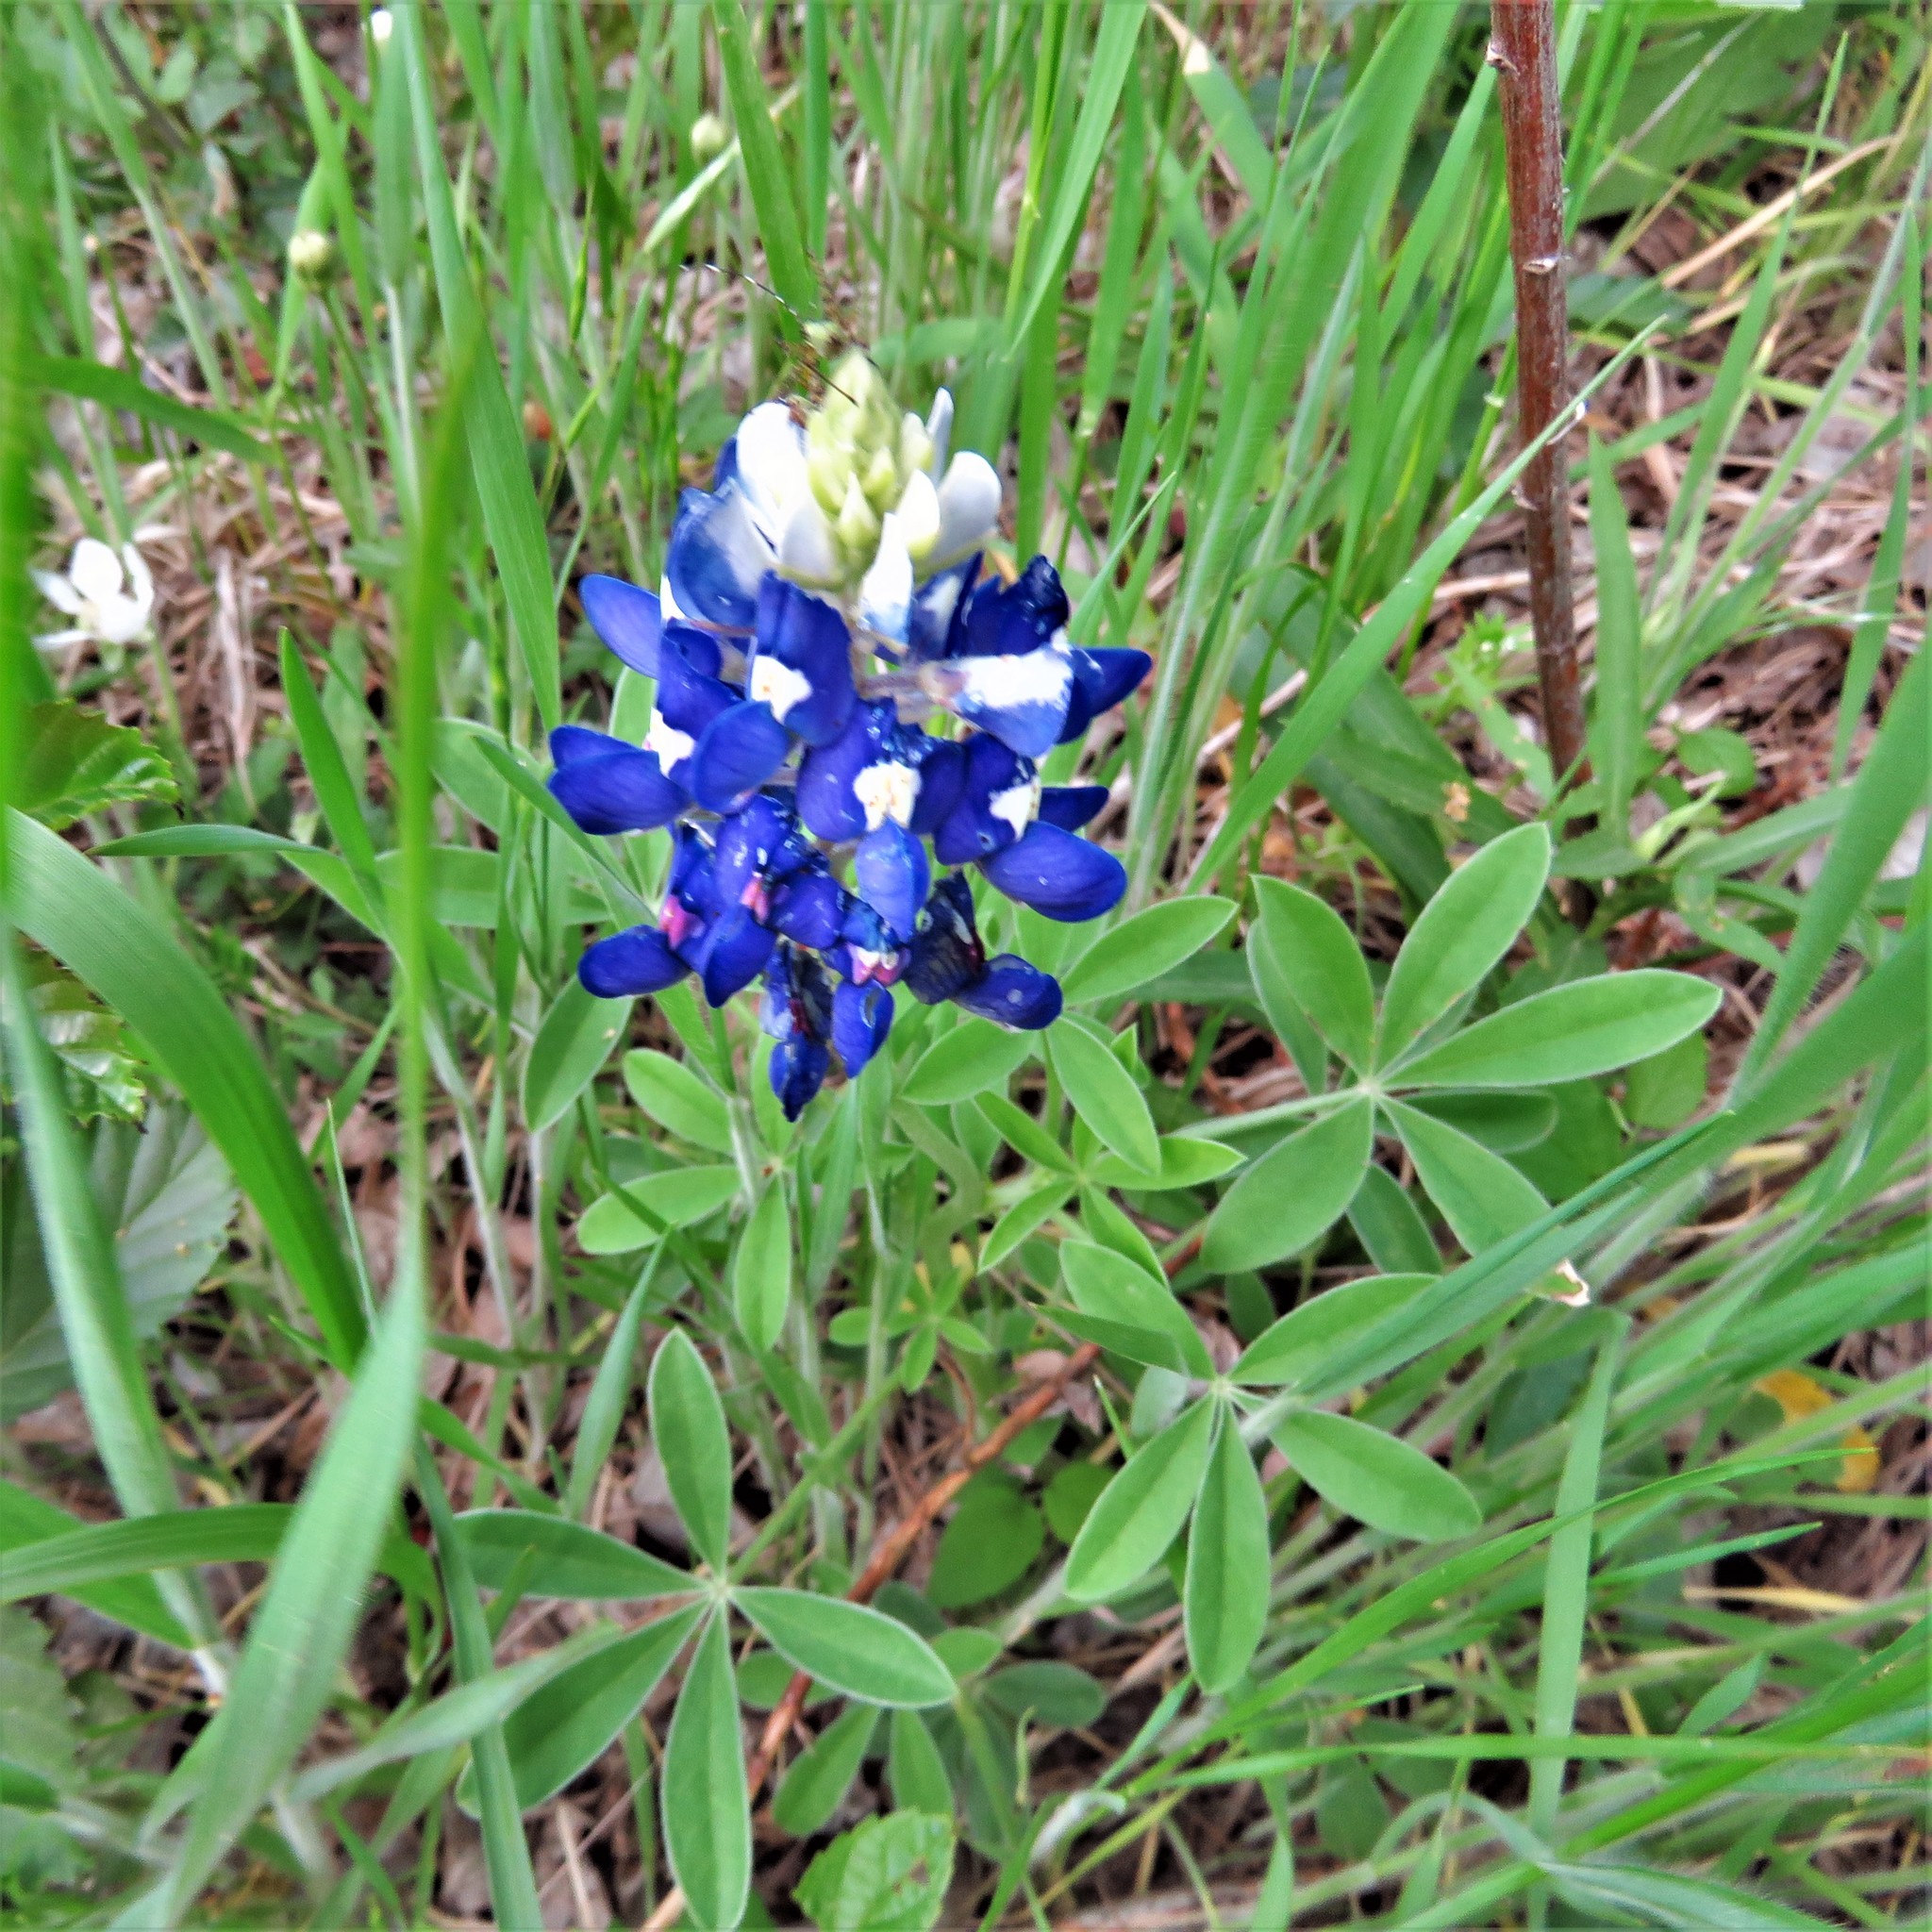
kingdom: Plantae
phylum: Tracheophyta
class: Magnoliopsida
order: Fabales
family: Fabaceae
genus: Lupinus
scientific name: Lupinus texensis
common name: Texas bluebonnet
